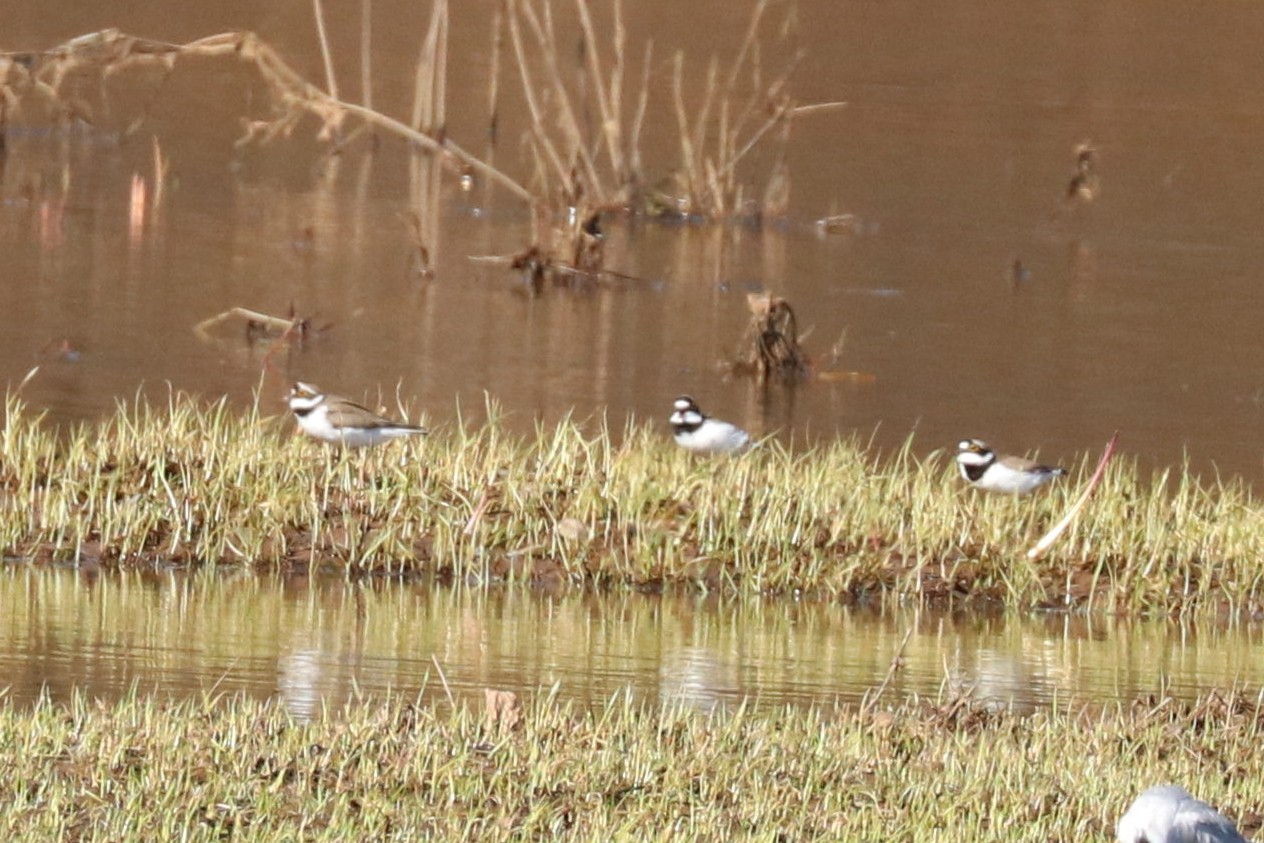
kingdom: Animalia
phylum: Chordata
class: Aves
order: Charadriiformes
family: Charadriidae
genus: Charadrius
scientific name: Charadrius dubius
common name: Little ringed plover
